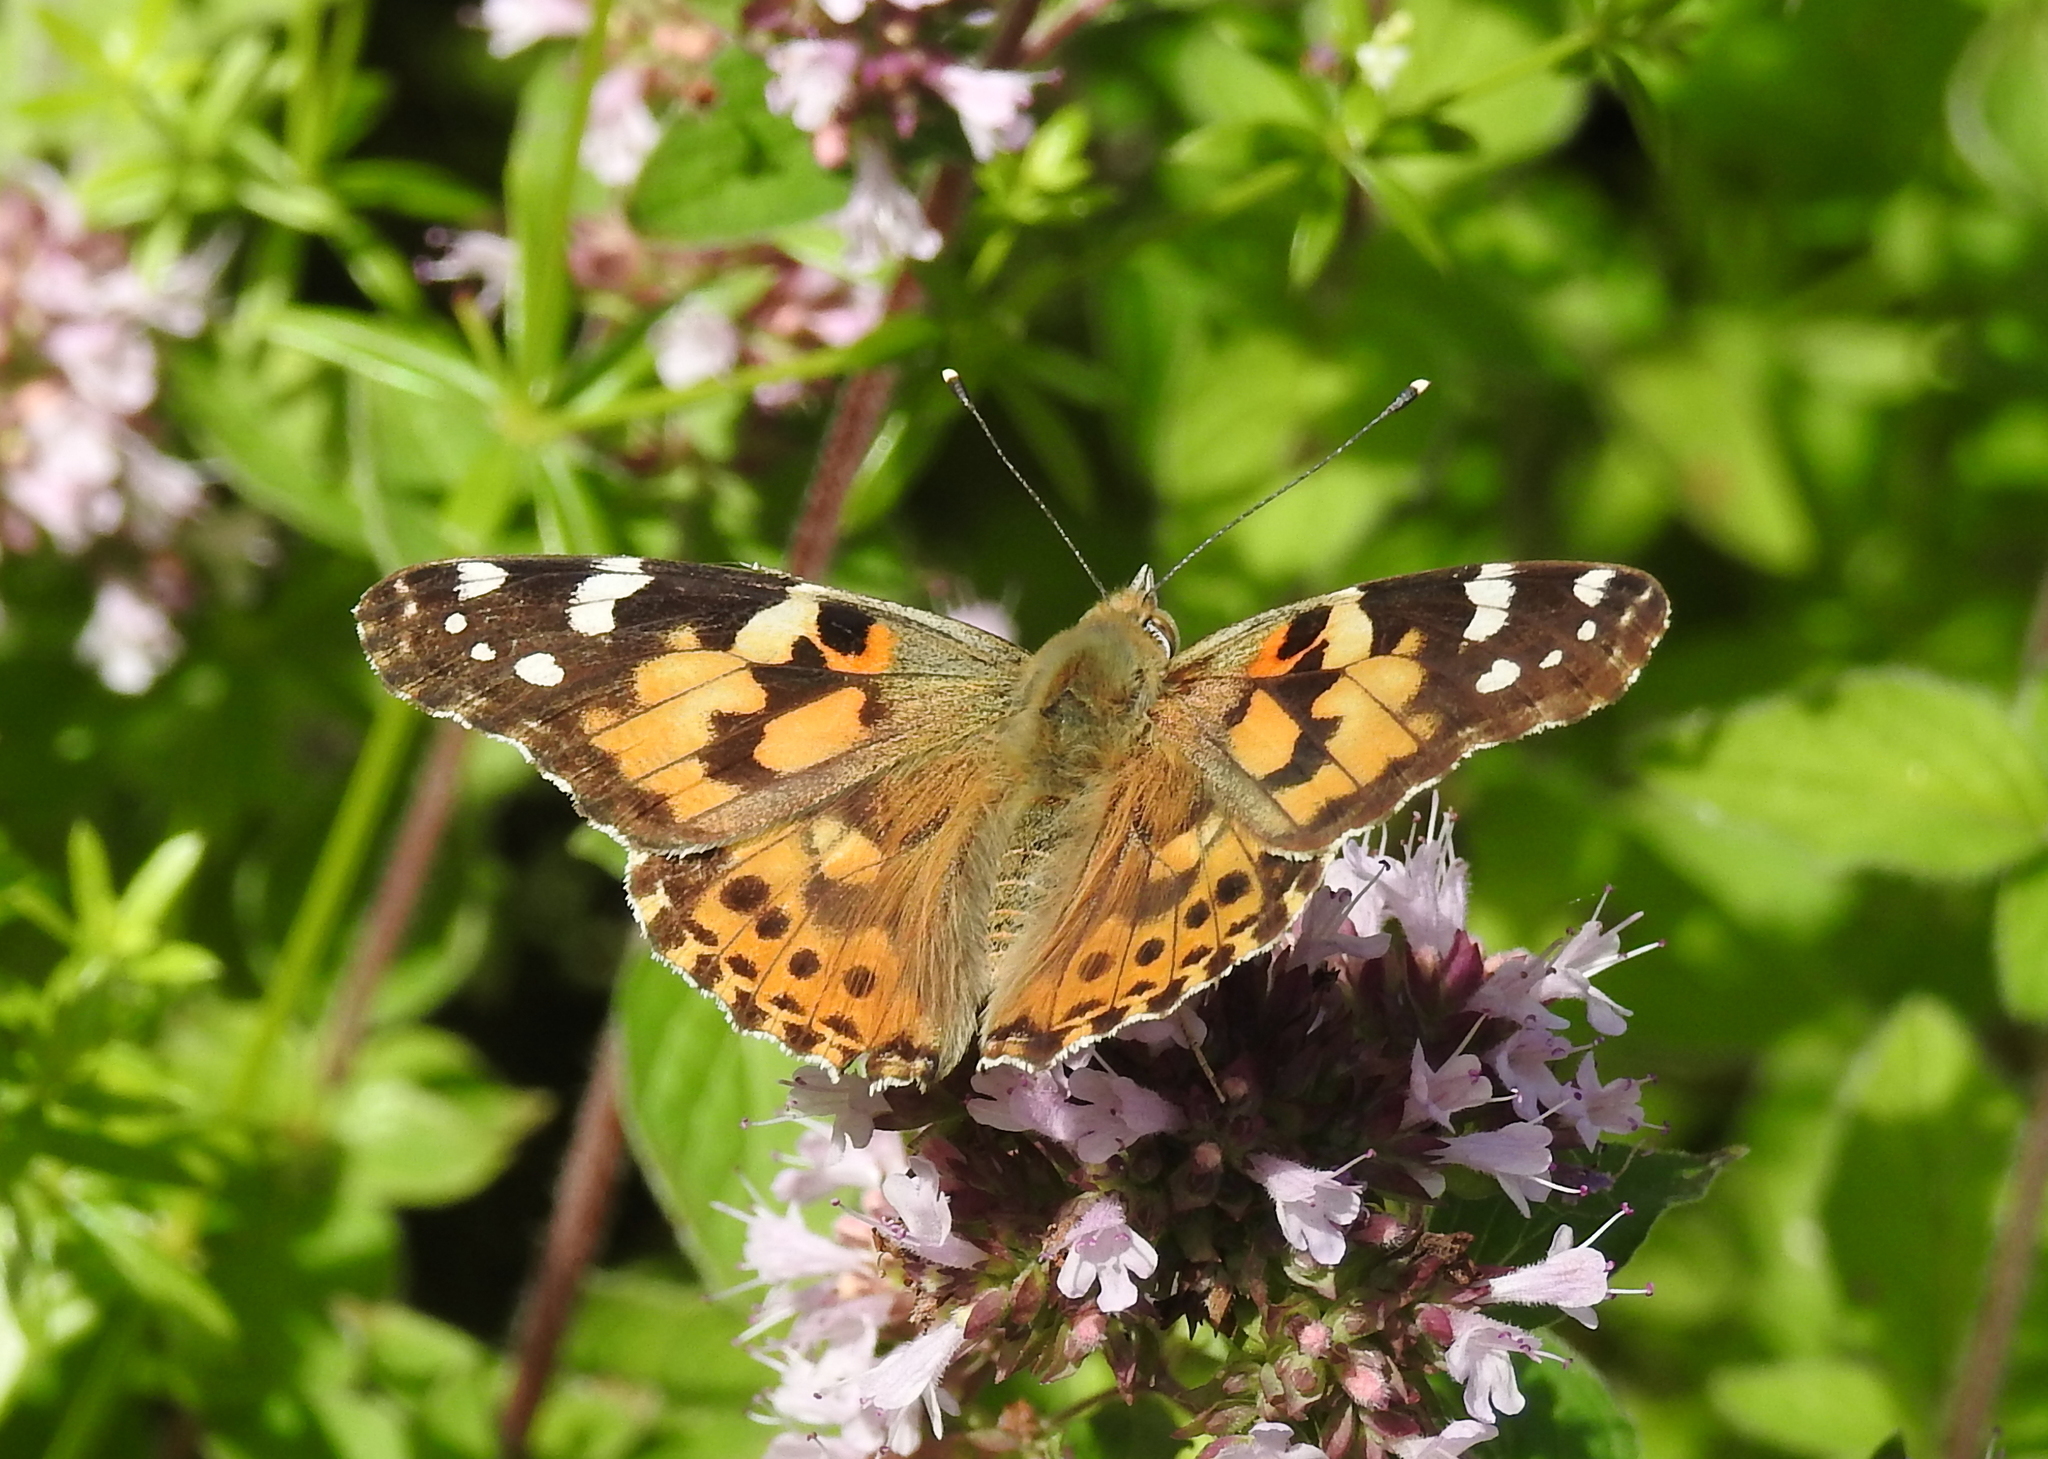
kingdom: Animalia
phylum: Arthropoda
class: Insecta
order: Lepidoptera
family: Nymphalidae
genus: Vanessa
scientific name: Vanessa cardui
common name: Painted lady
